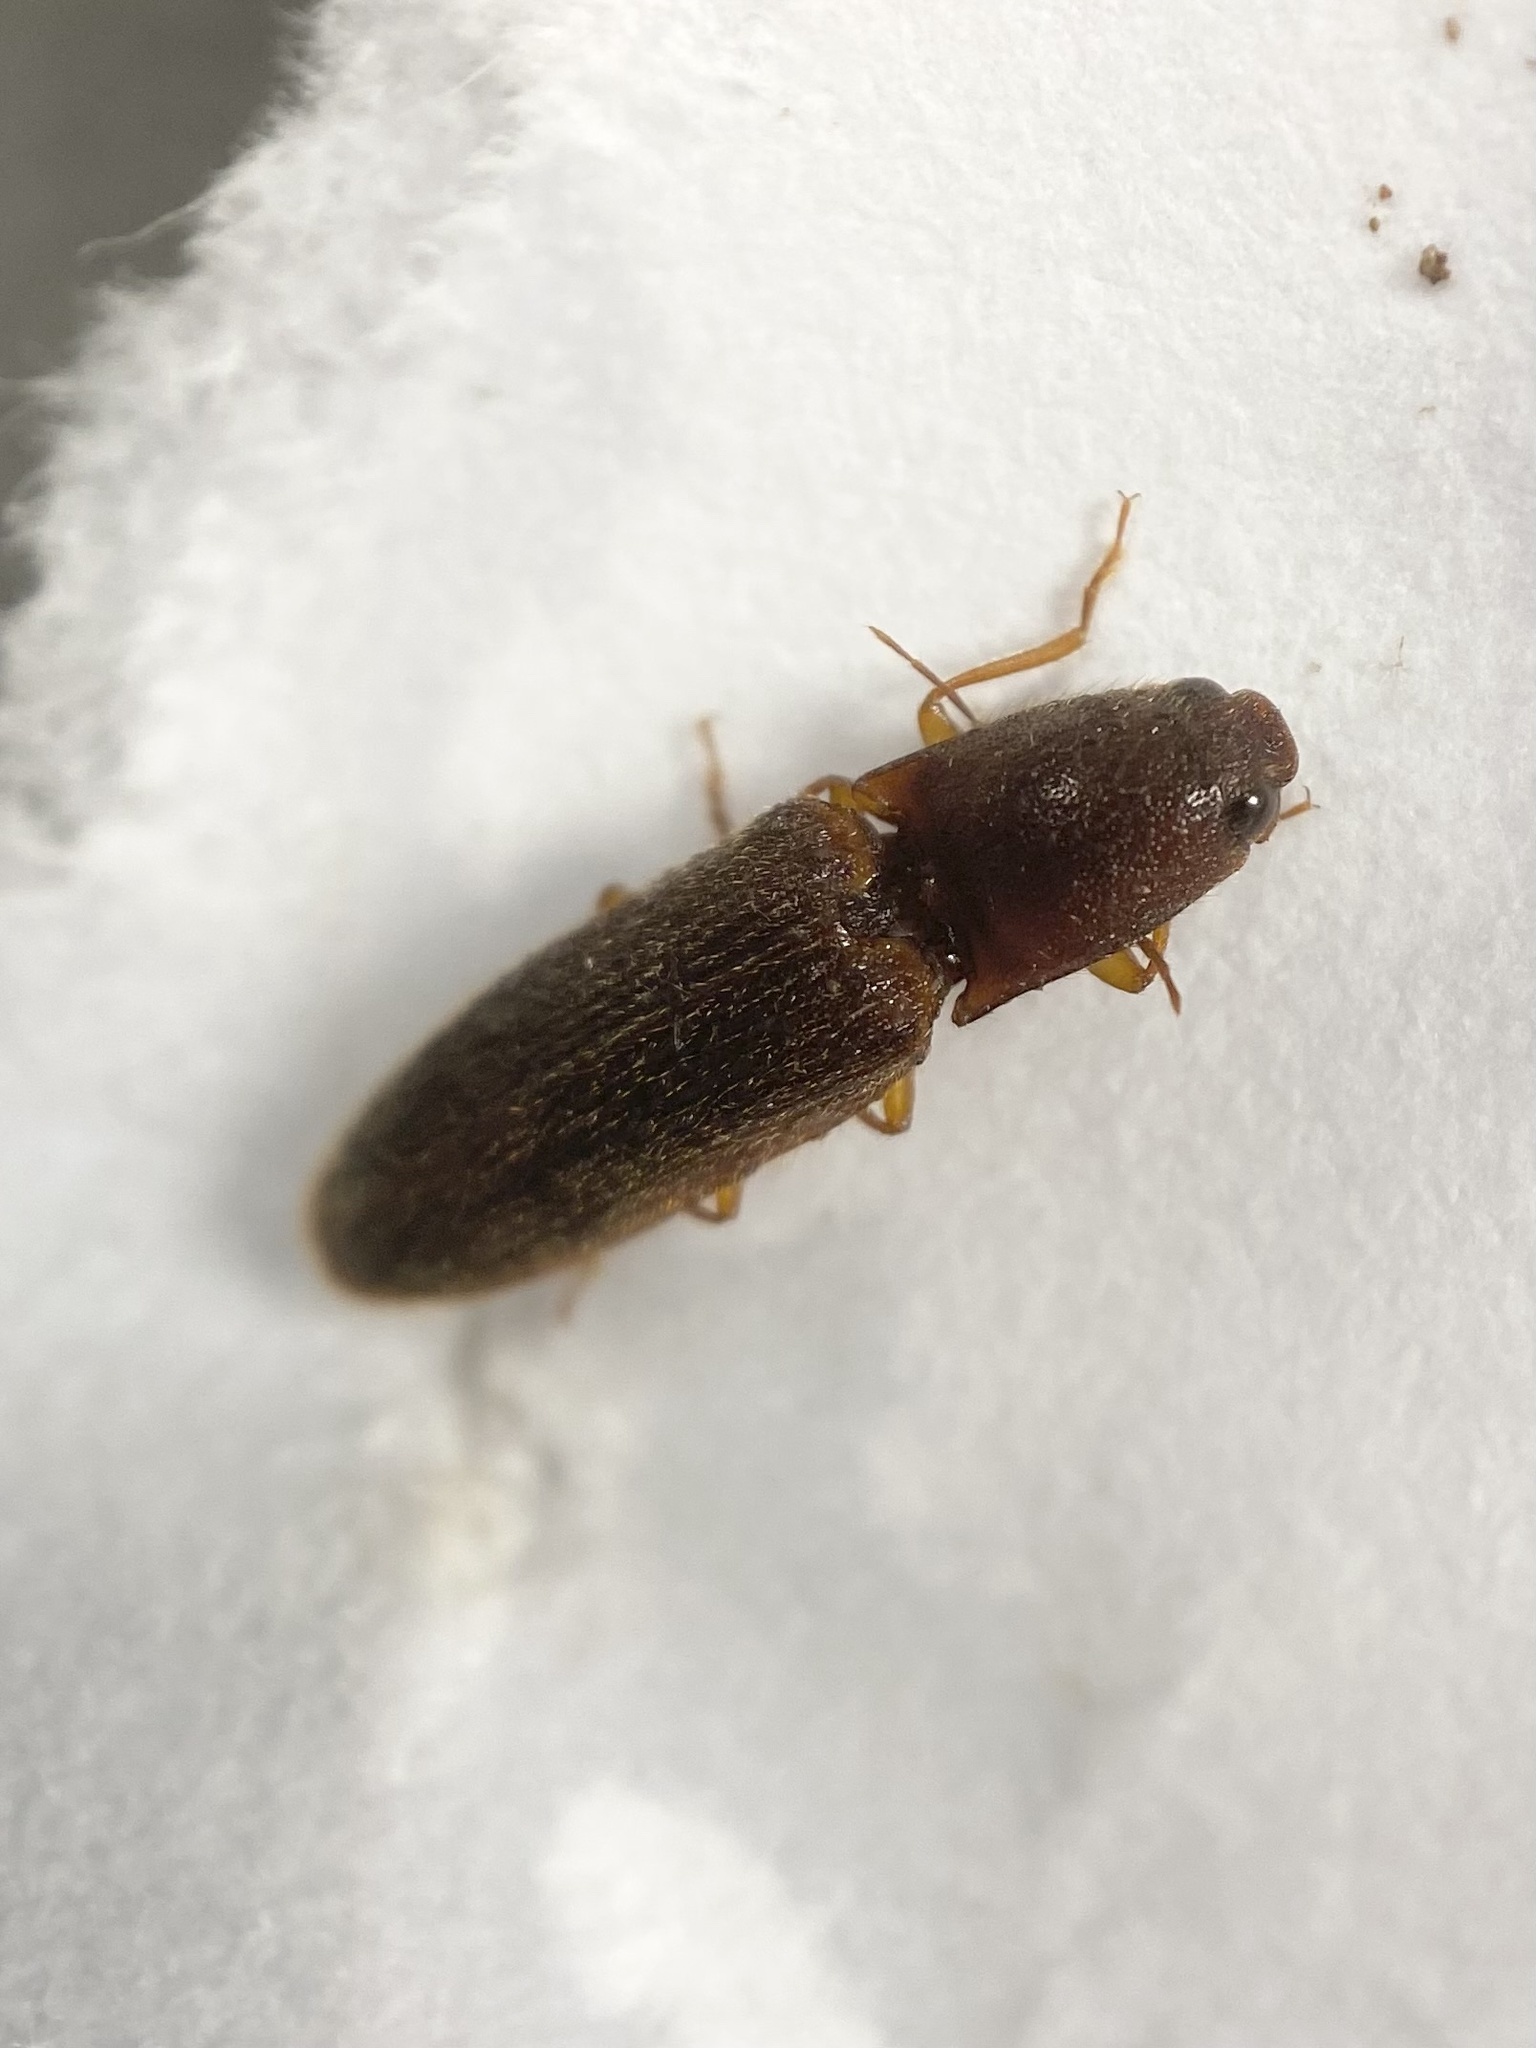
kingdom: Animalia
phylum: Arthropoda
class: Insecta
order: Coleoptera
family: Elateridae
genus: Athous
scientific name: Athous cucullatus
